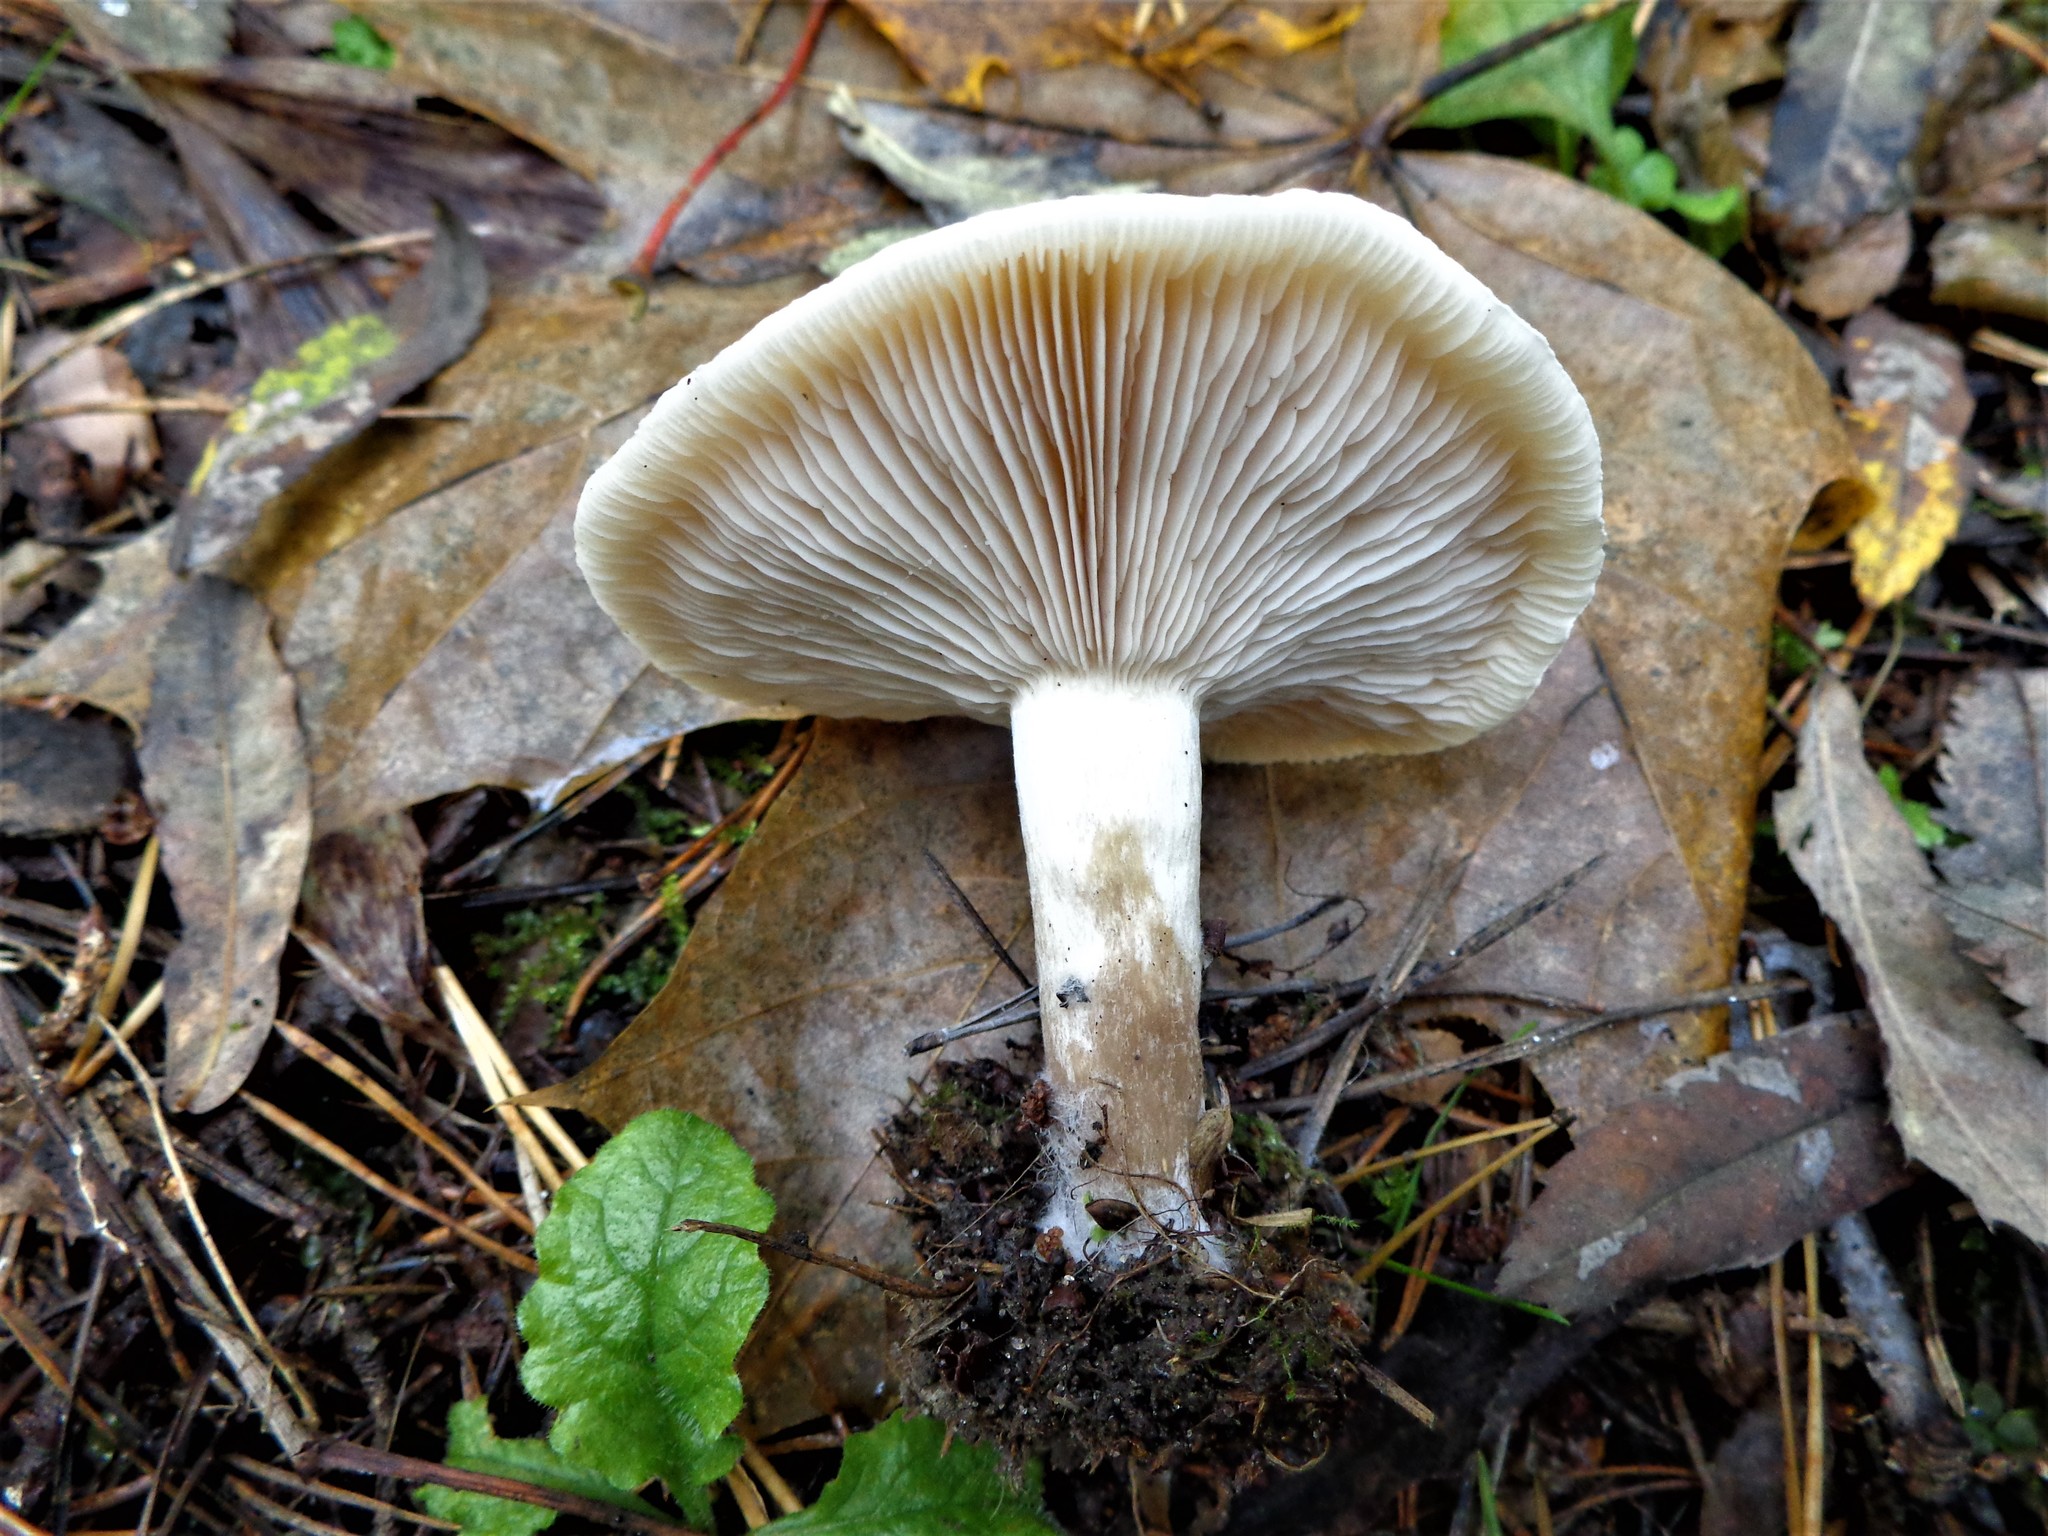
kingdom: Fungi
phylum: Basidiomycota
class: Agaricomycetes
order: Agaricales
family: Tricholomataceae
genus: Collybia
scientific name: Collybia
